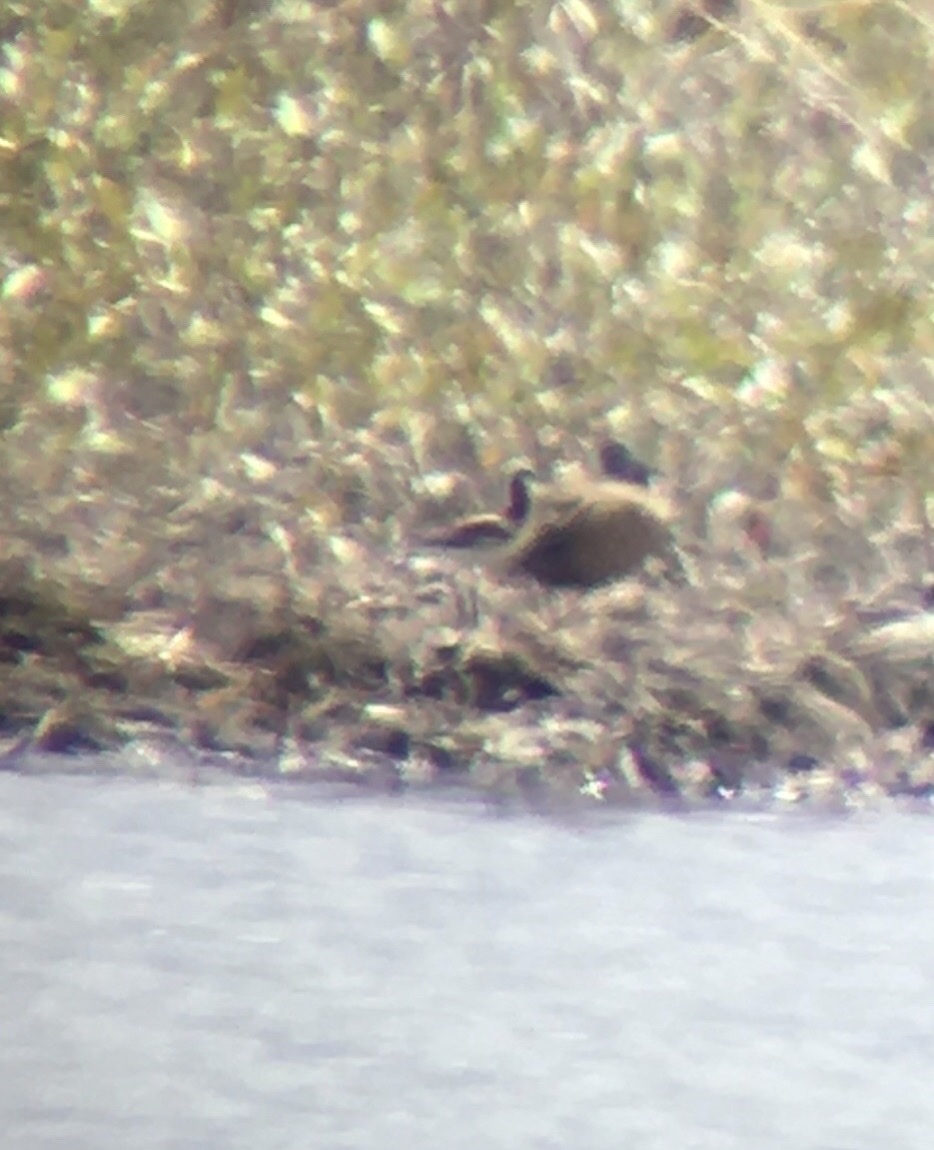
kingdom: Animalia
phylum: Chordata
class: Aves
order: Charadriiformes
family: Scolopacidae
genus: Phalaropus
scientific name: Phalaropus tricolor
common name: Wilson's phalarope
